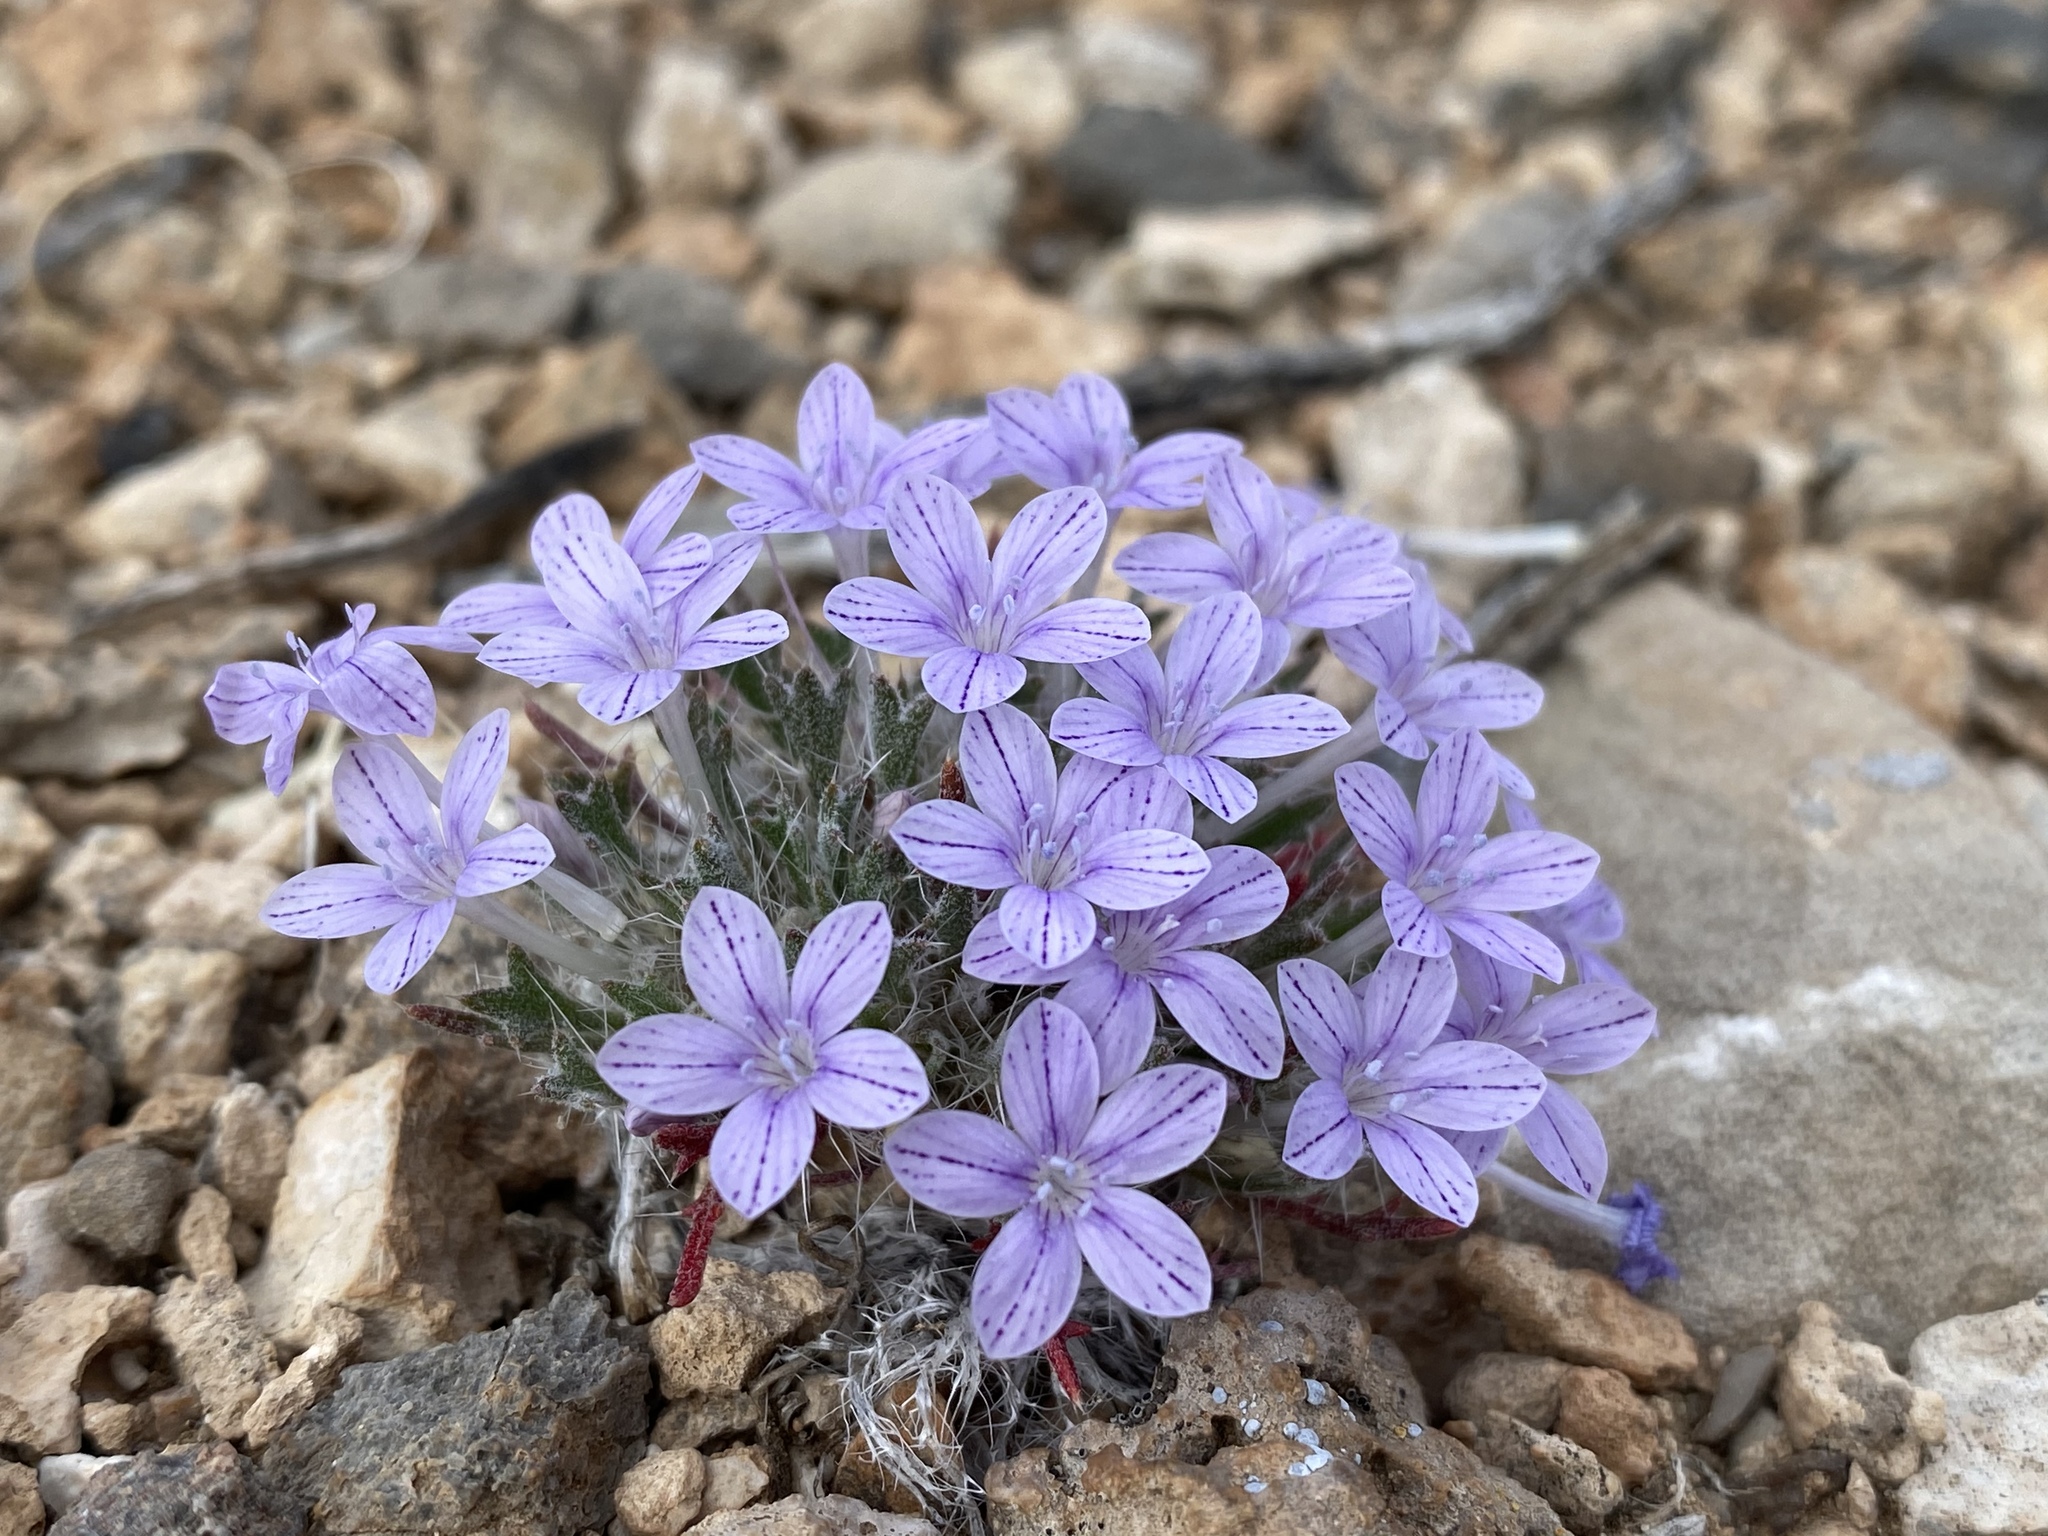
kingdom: Plantae
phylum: Tracheophyta
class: Magnoliopsida
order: Ericales
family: Polemoniaceae
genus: Langloisia
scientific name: Langloisia setosissima
